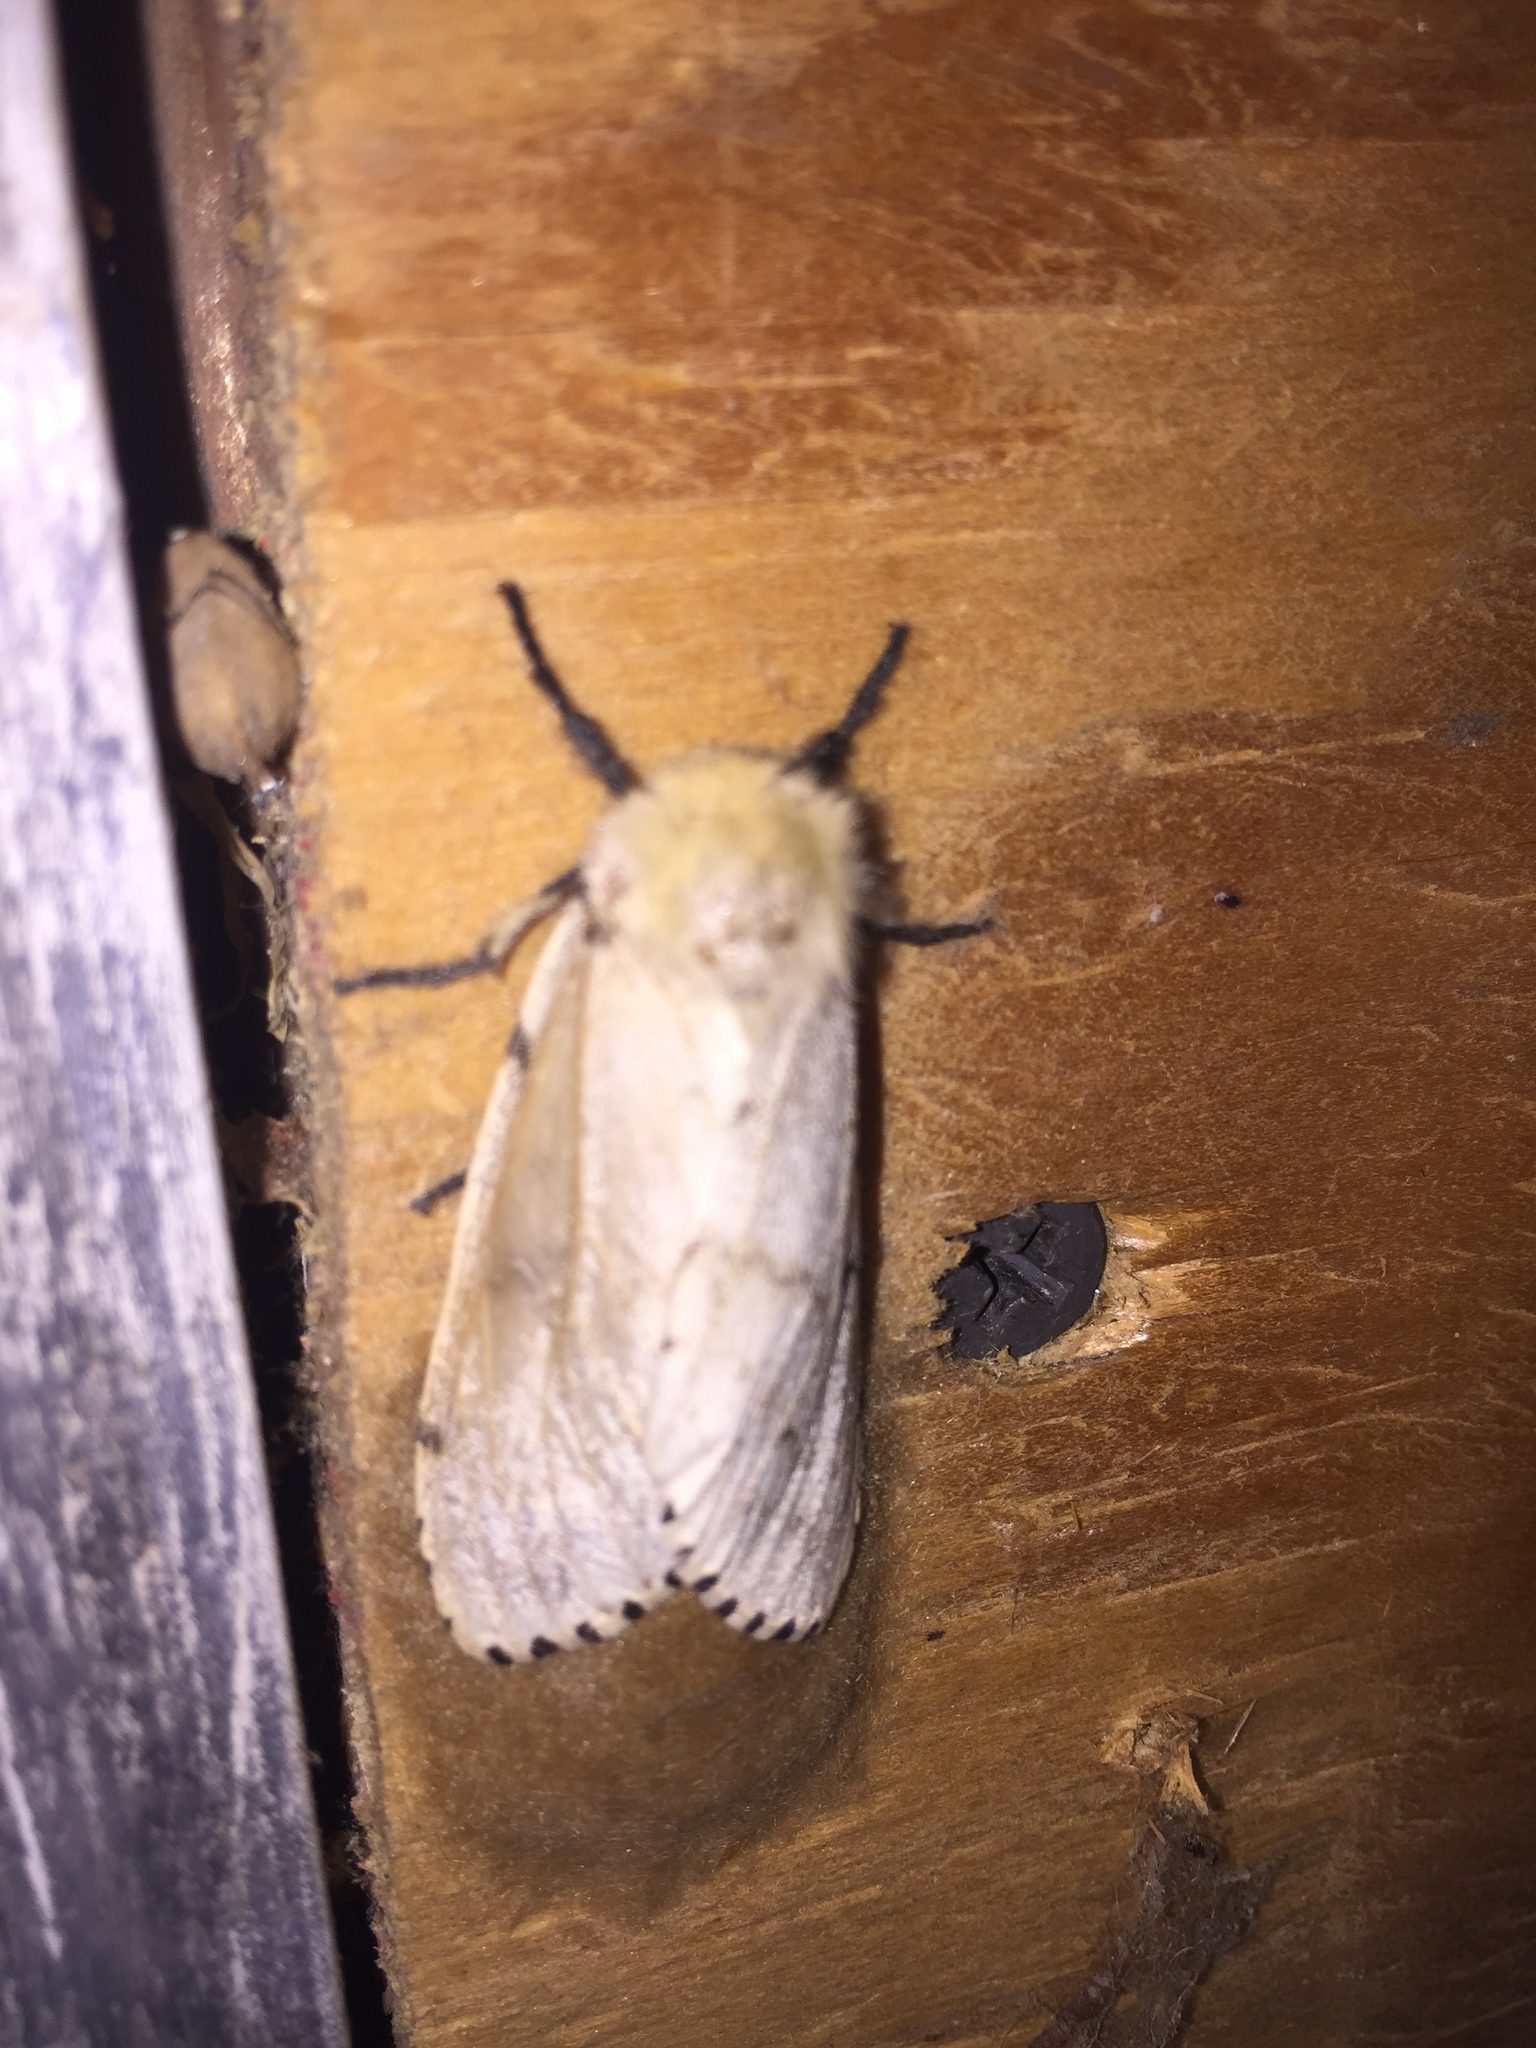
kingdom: Animalia
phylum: Arthropoda
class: Insecta
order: Lepidoptera
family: Erebidae
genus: Lymantria
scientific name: Lymantria dispar
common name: Gypsy moth
